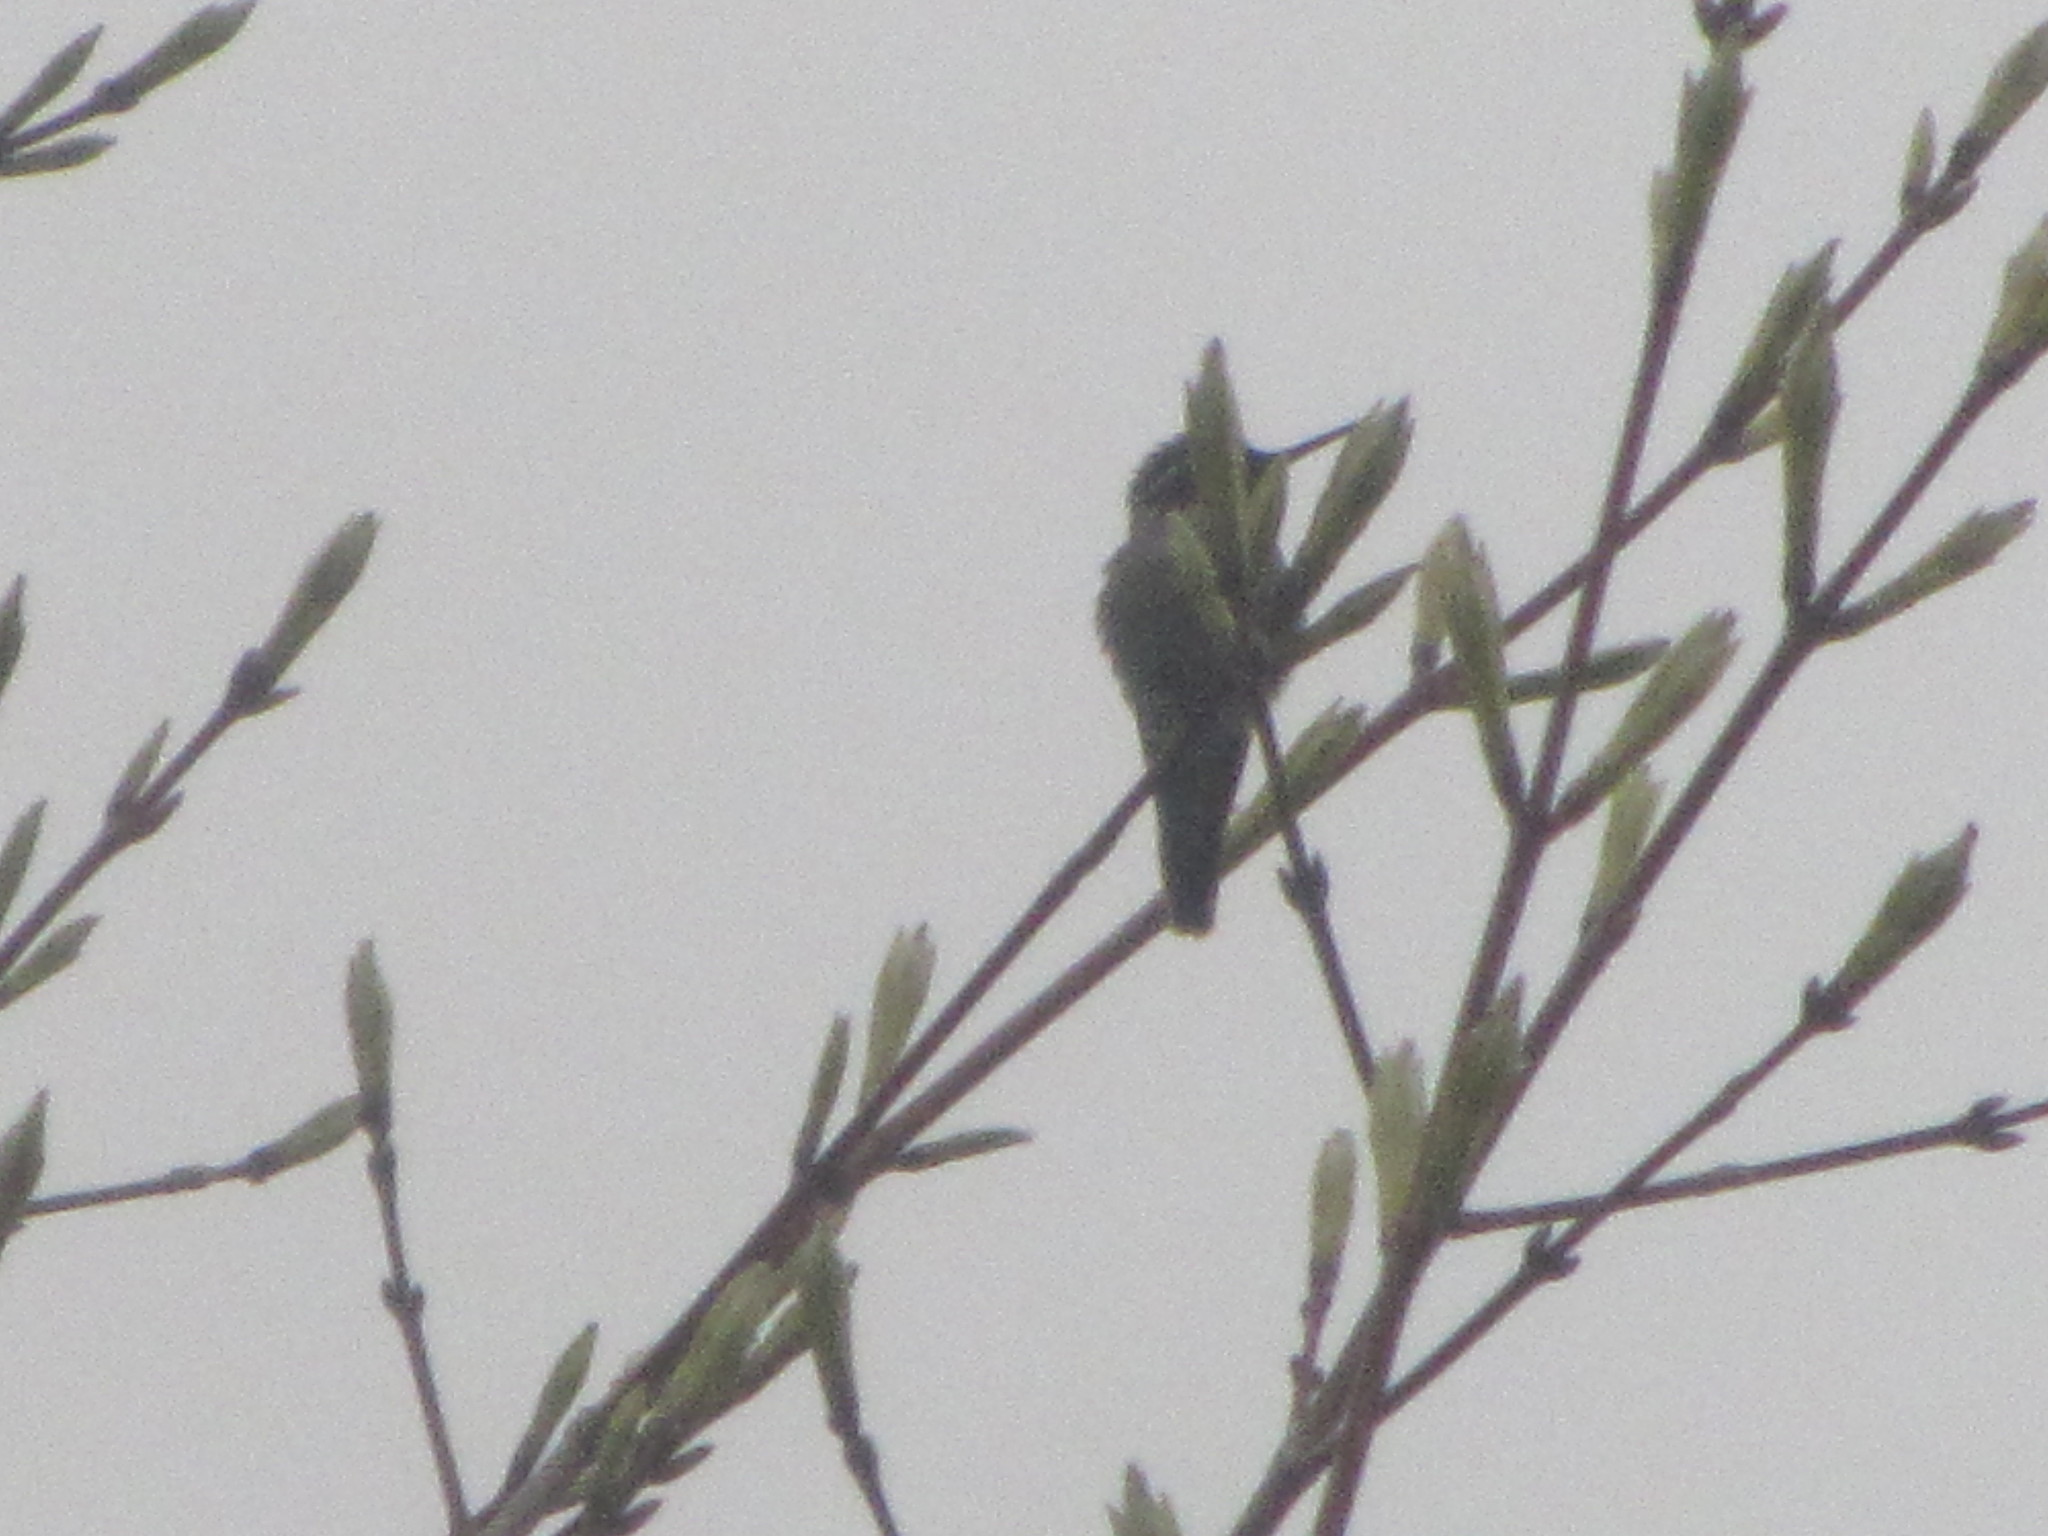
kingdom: Animalia
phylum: Chordata
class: Aves
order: Apodiformes
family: Trochilidae
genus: Calypte
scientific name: Calypte anna
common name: Anna's hummingbird
